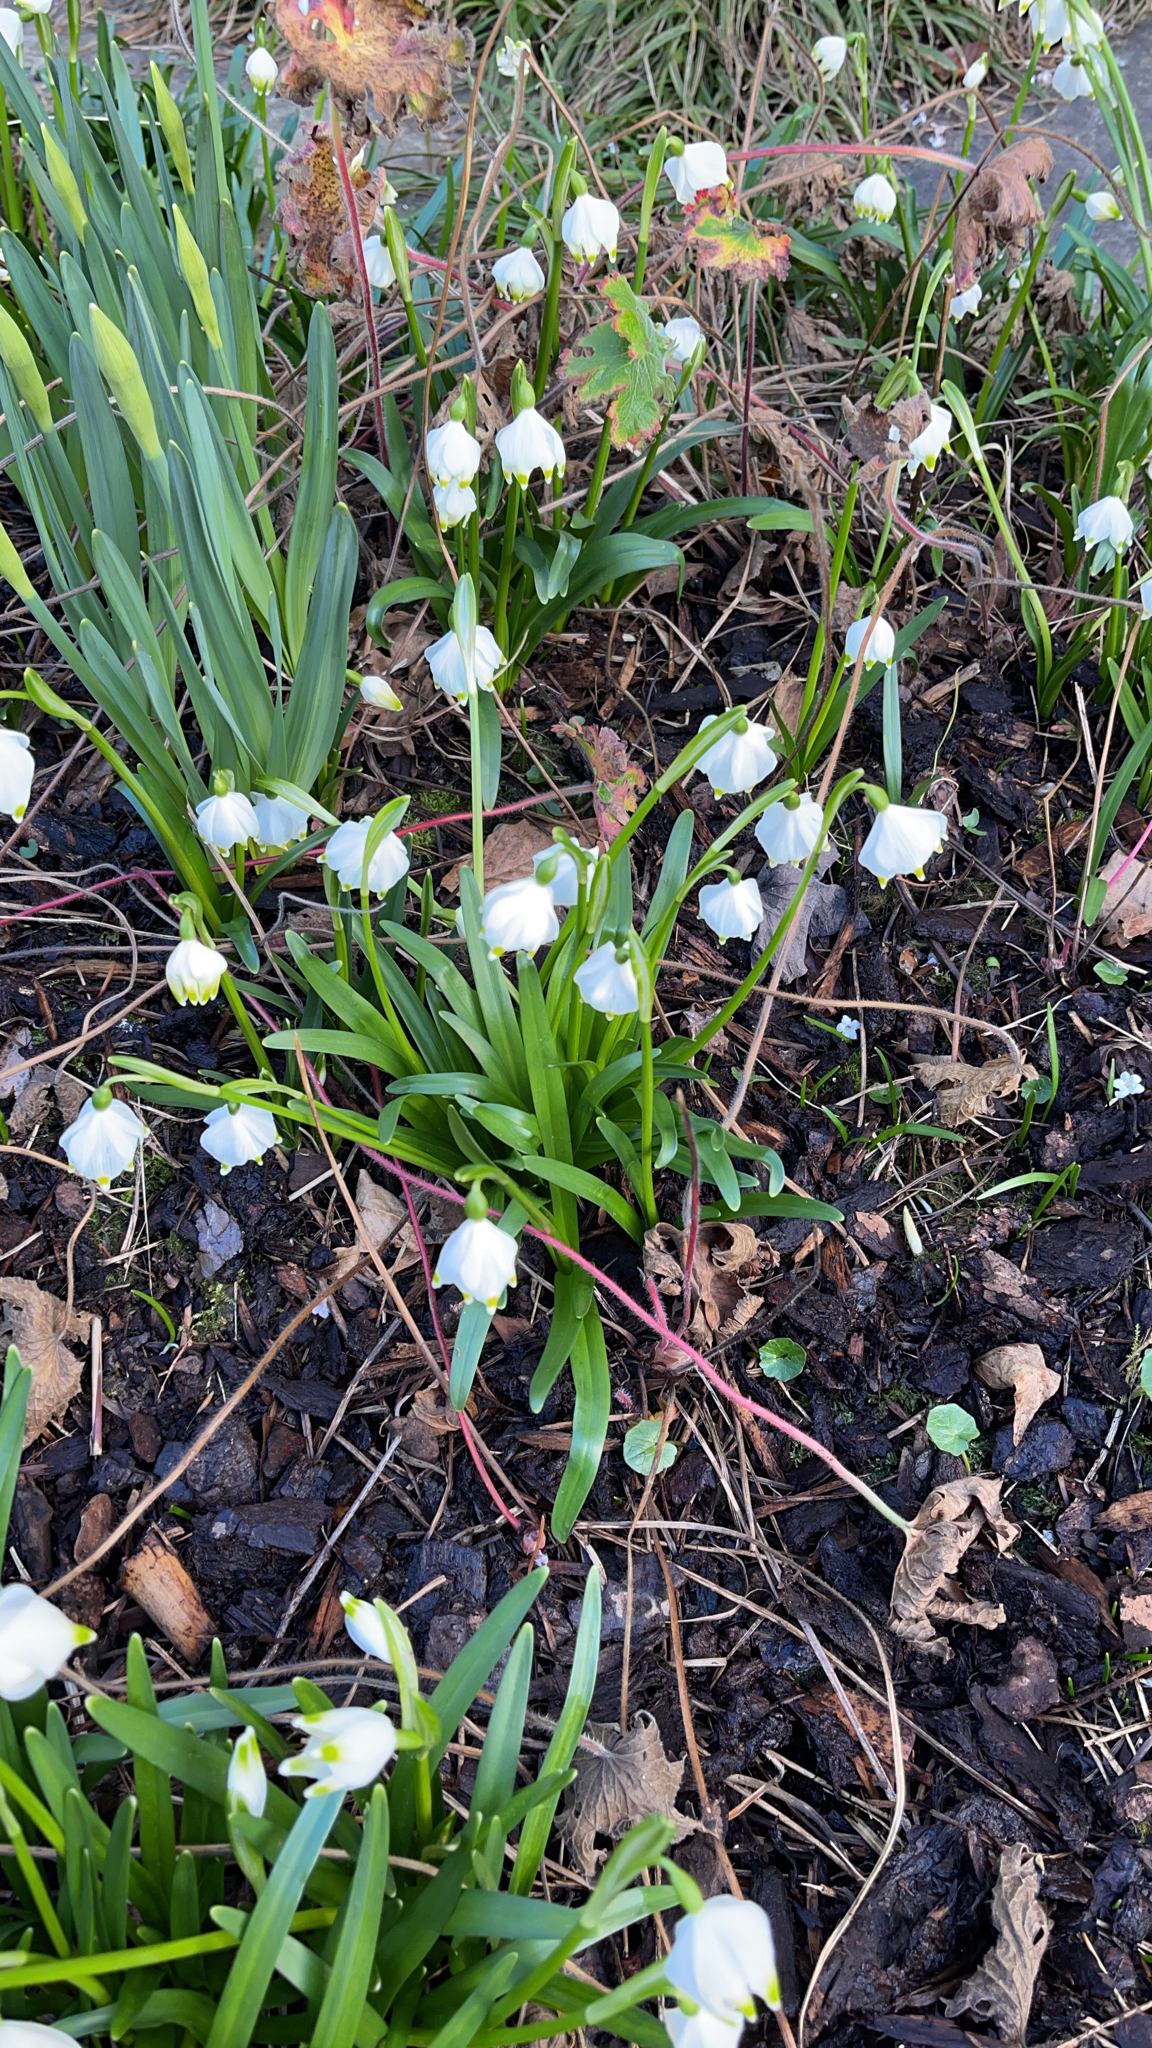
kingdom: Plantae
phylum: Tracheophyta
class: Liliopsida
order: Asparagales
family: Amaryllidaceae
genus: Leucojum
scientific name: Leucojum vernum
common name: Spring snowflake
